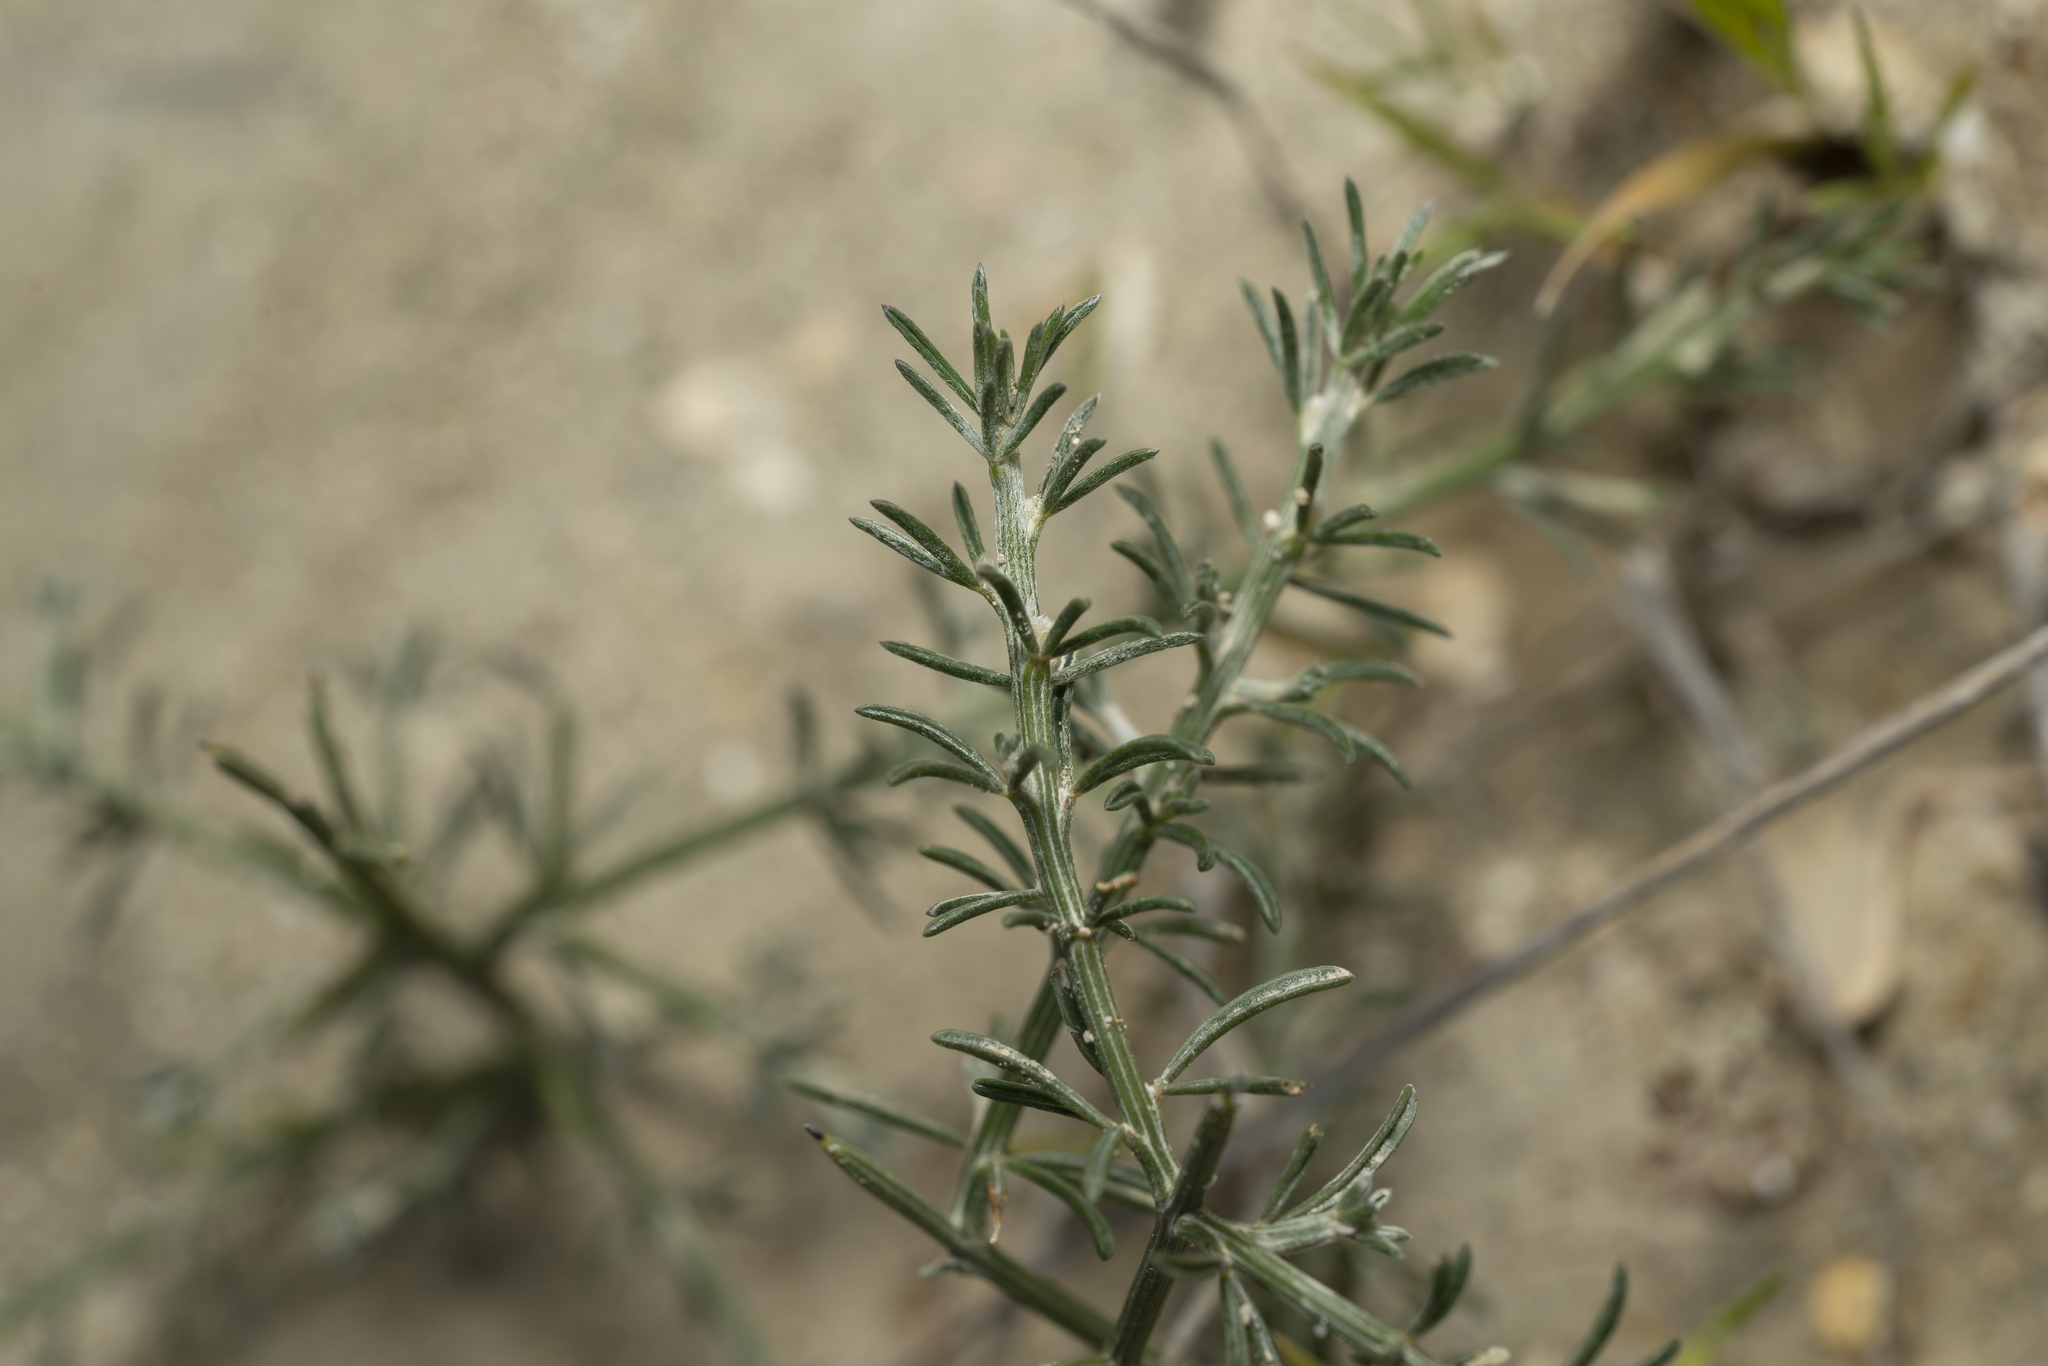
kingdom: Plantae
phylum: Tracheophyta
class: Magnoliopsida
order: Fabales
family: Fabaceae
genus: Genista
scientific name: Genista acanthoclada
